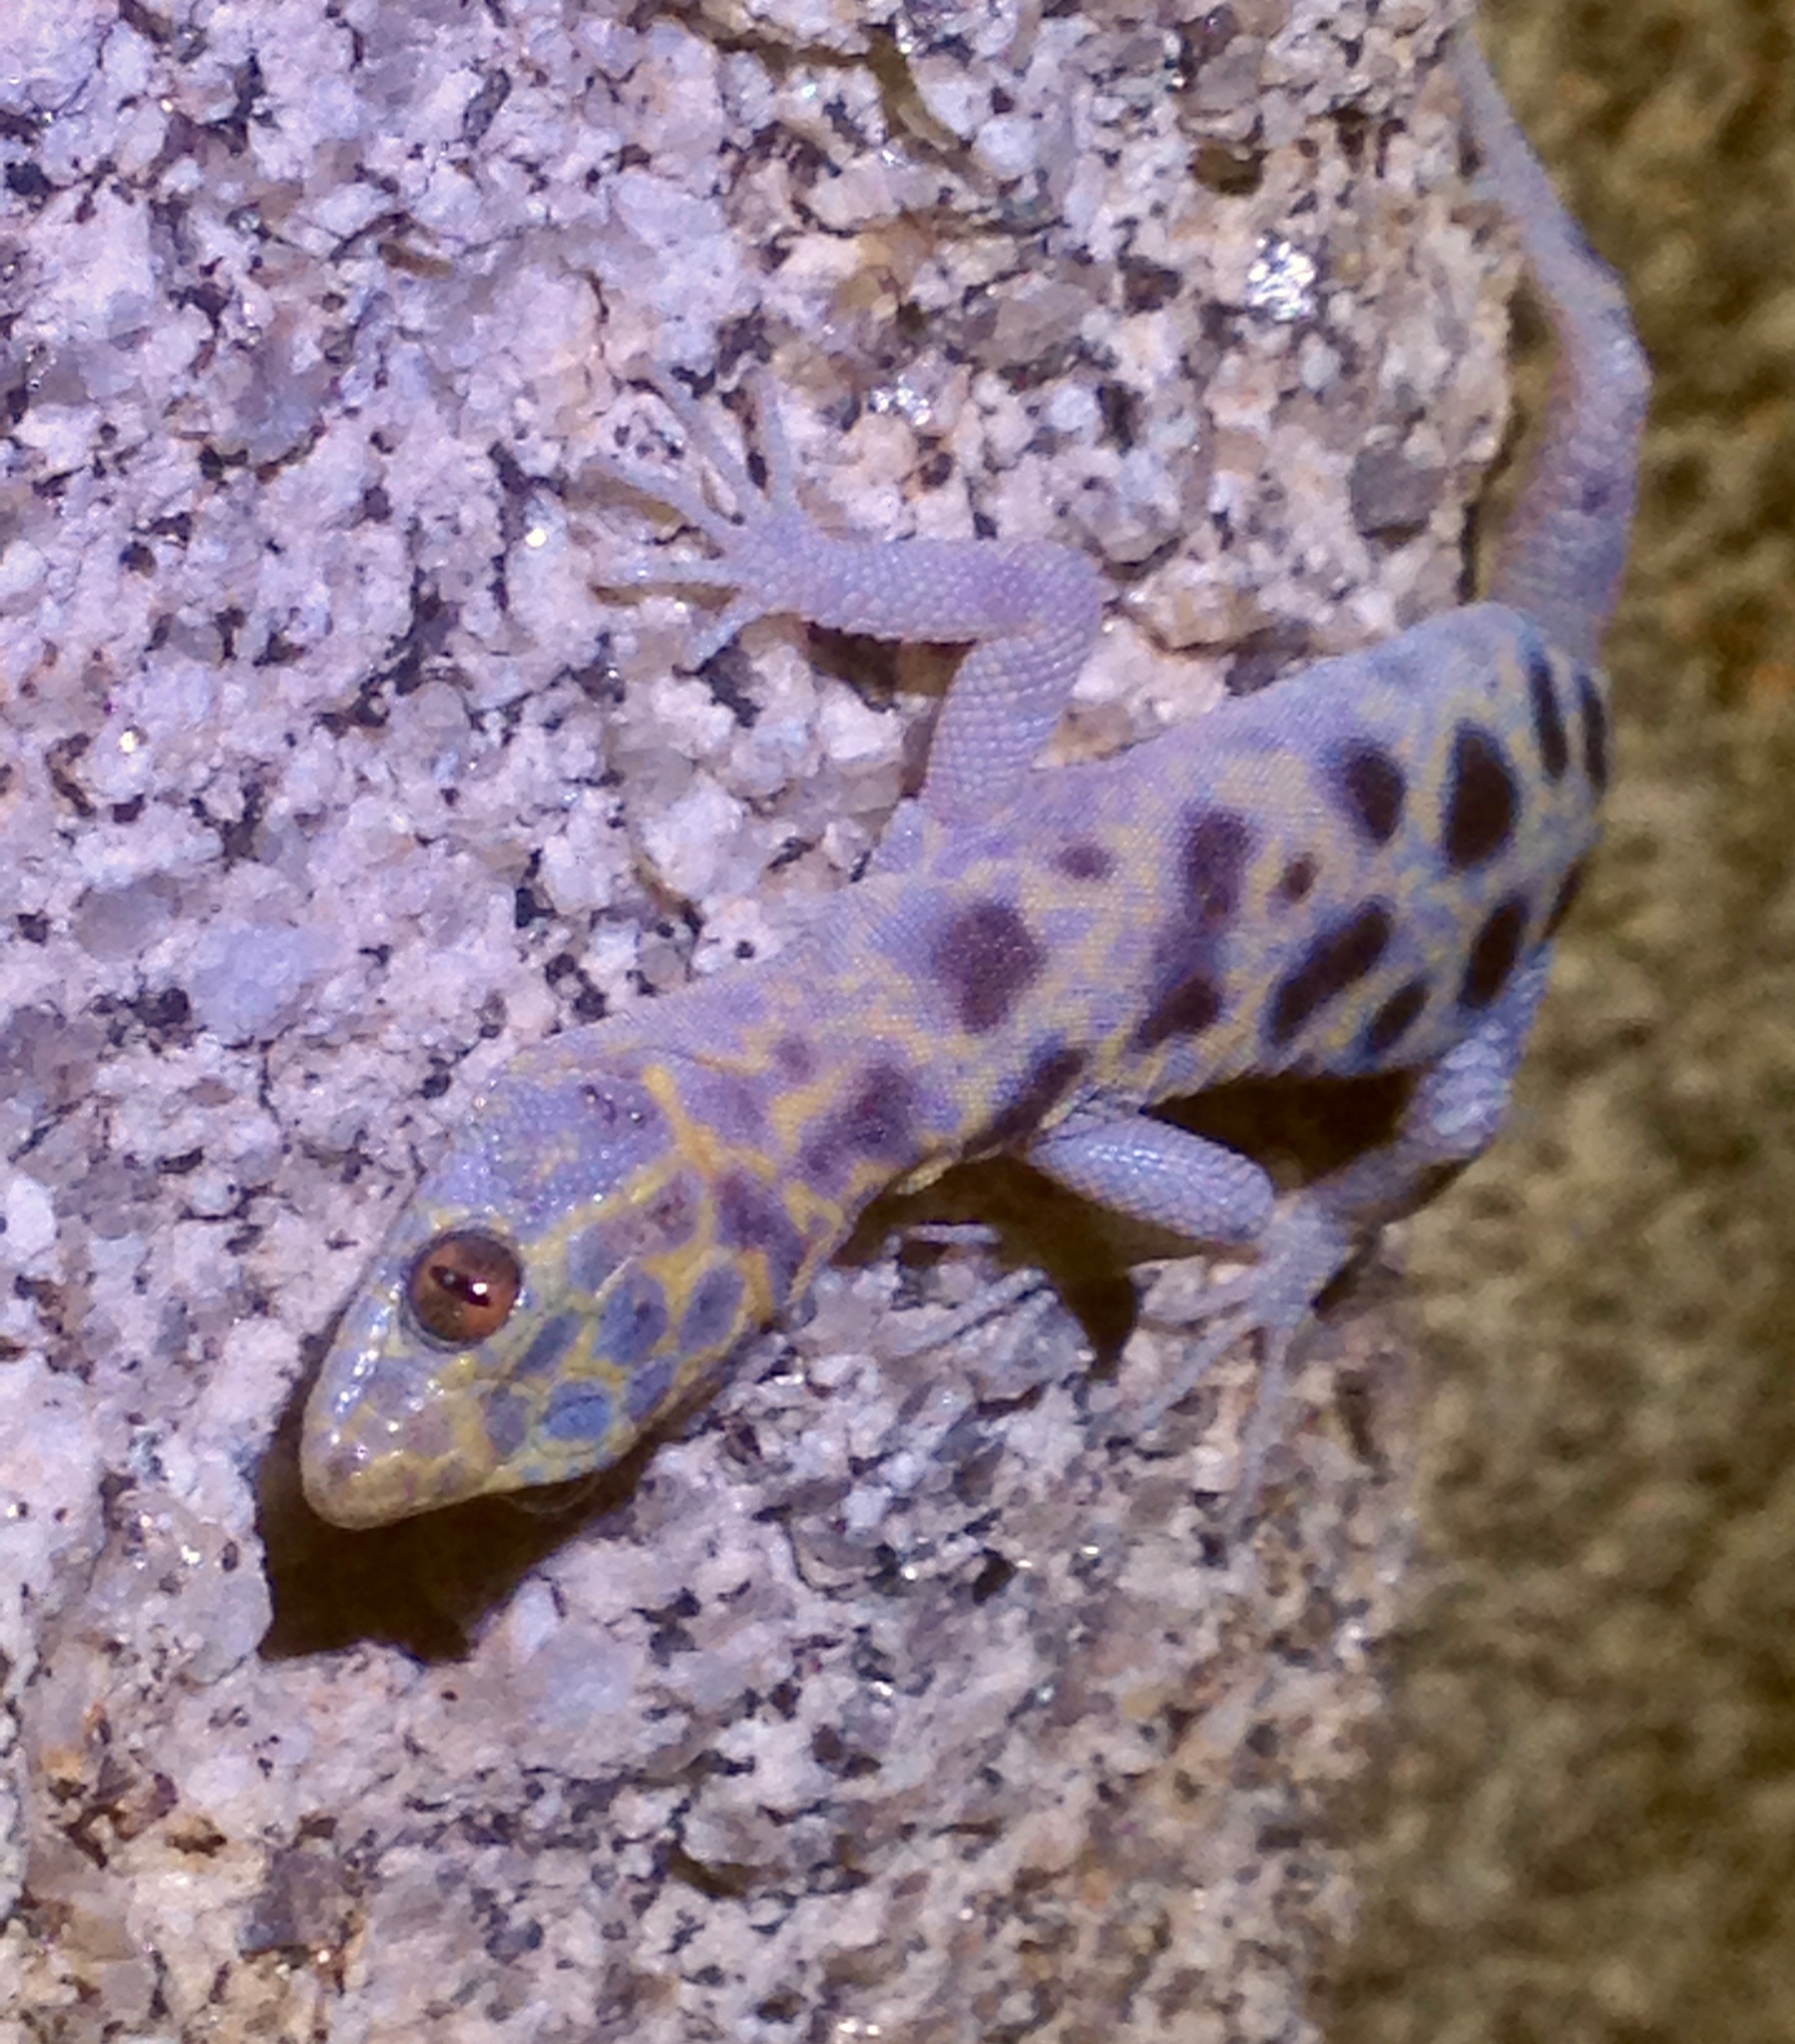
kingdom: Animalia
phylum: Chordata
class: Squamata
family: Xantusiidae
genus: Xantusia
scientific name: Xantusia henshawi
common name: Granite night lizard
